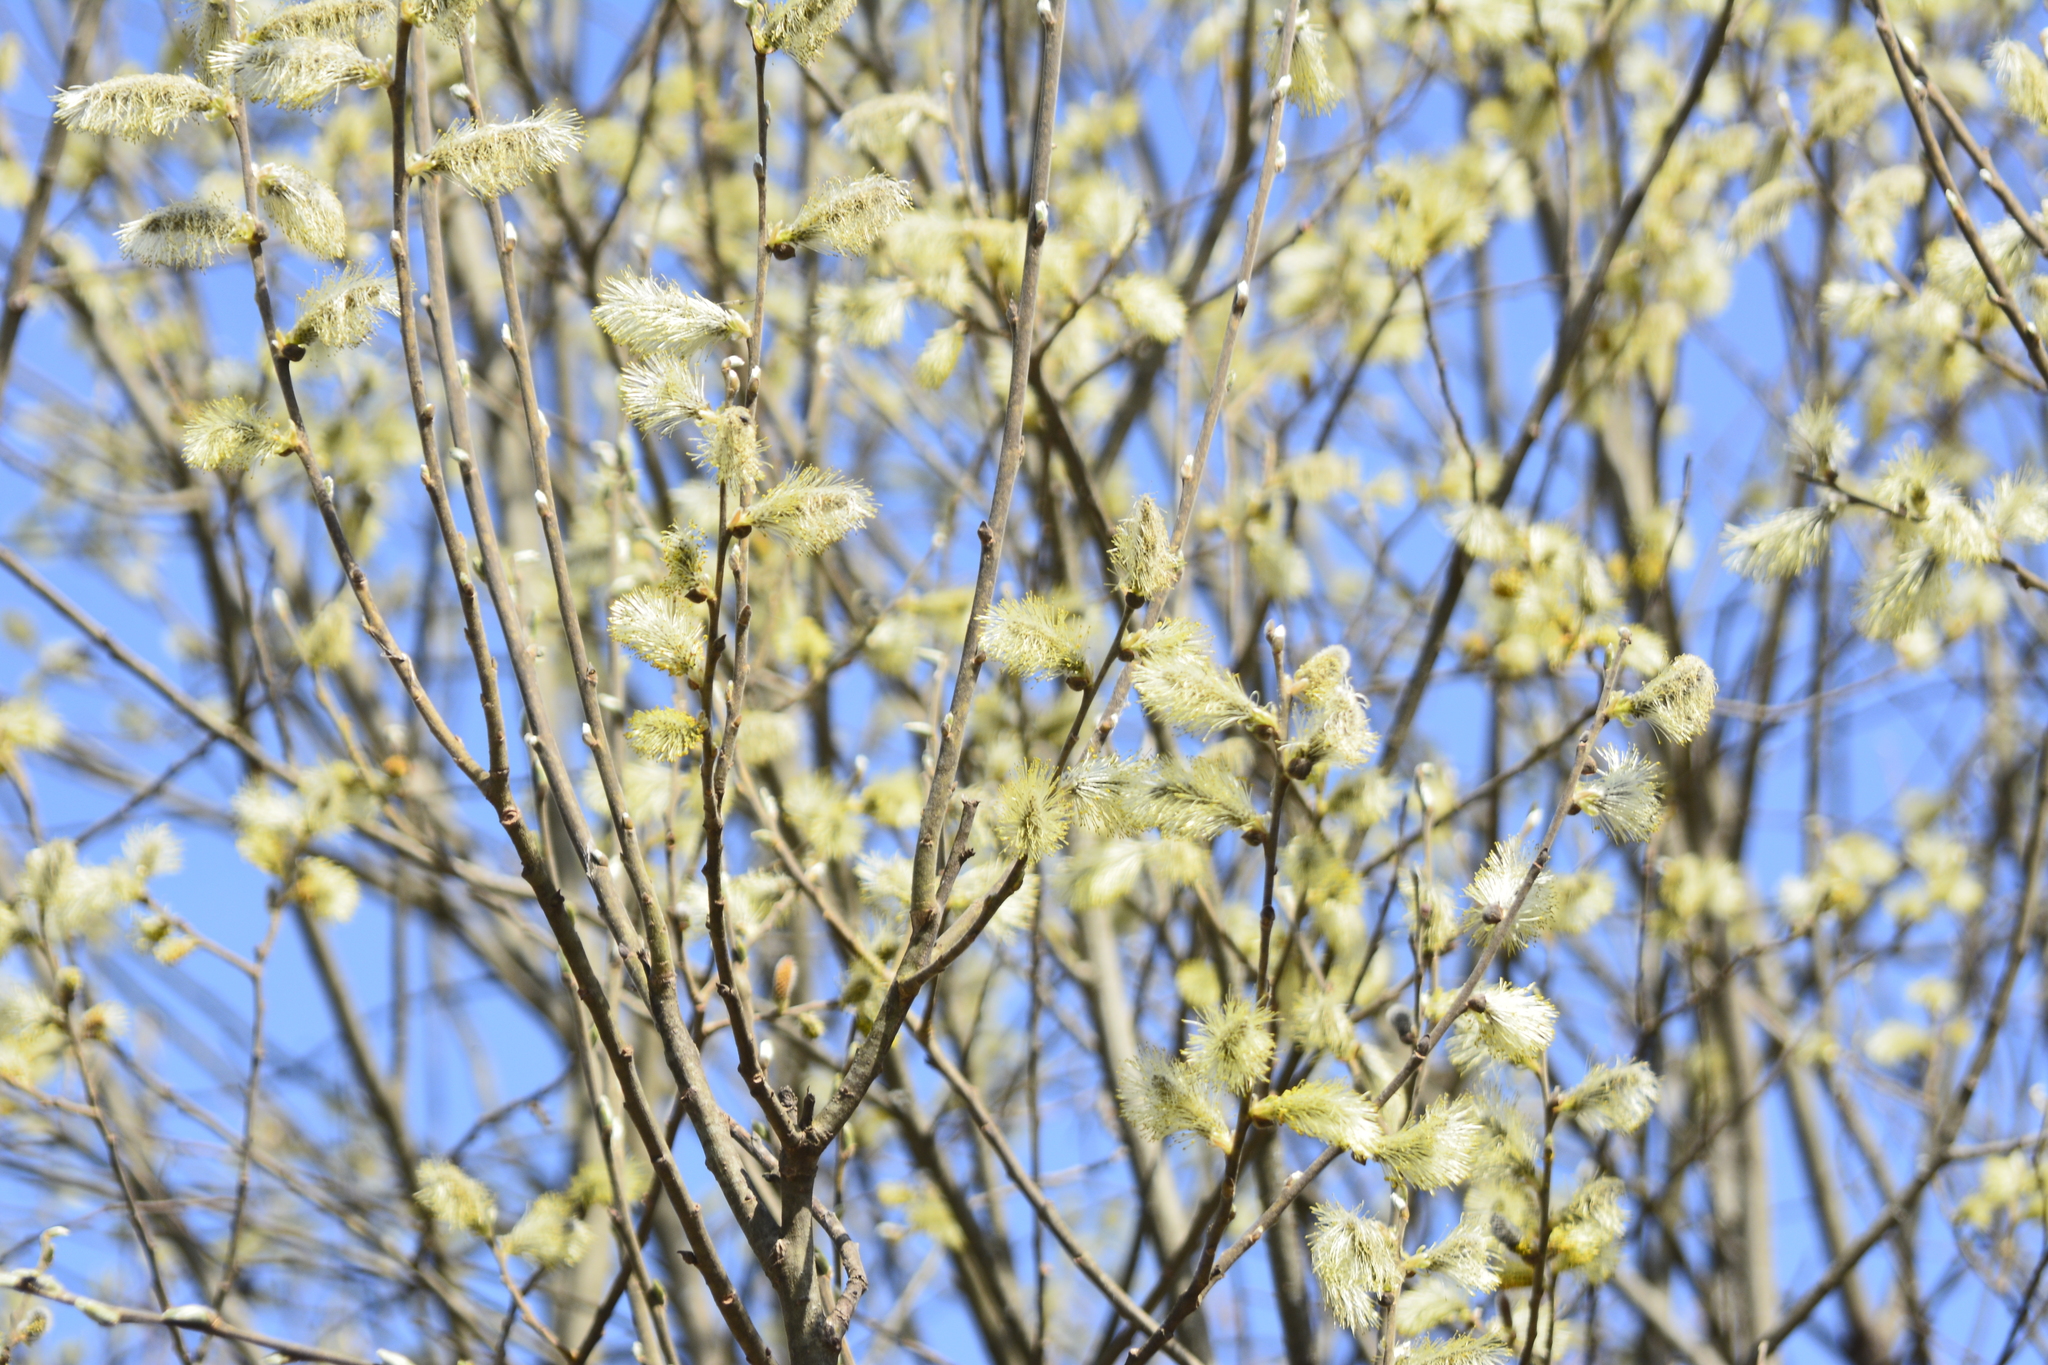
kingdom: Plantae
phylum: Tracheophyta
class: Magnoliopsida
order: Malpighiales
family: Salicaceae
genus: Salix
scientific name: Salix cinerea
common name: Common sallow
